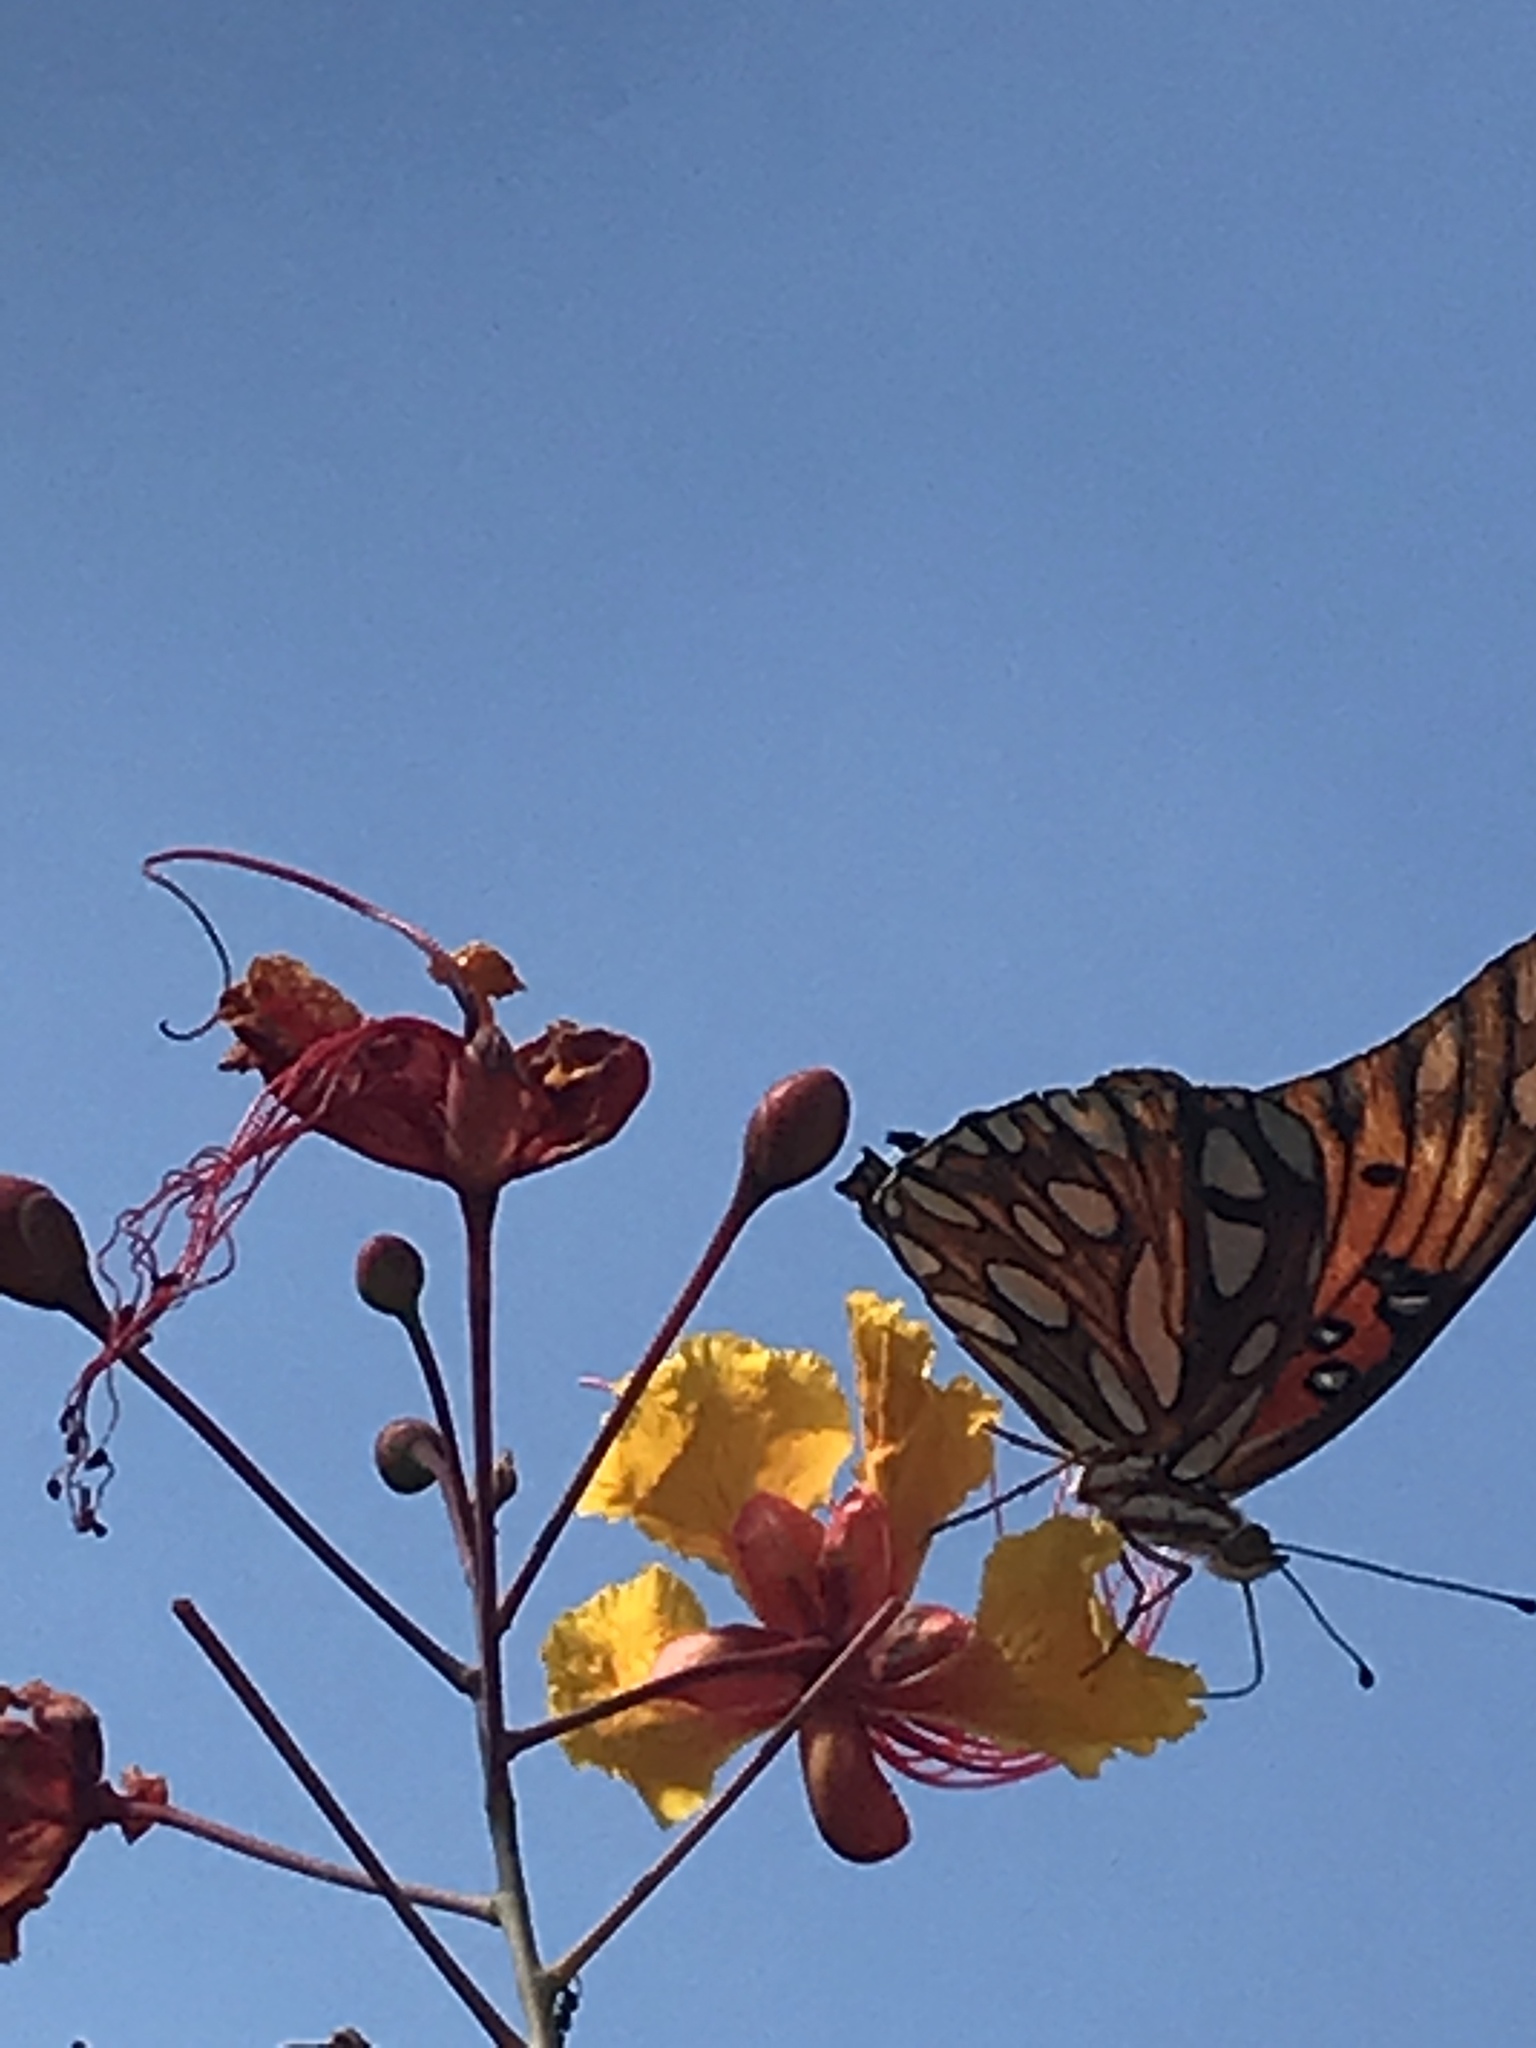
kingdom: Animalia
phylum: Arthropoda
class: Insecta
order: Lepidoptera
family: Nymphalidae
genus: Dione
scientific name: Dione vanillae
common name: Gulf fritillary
